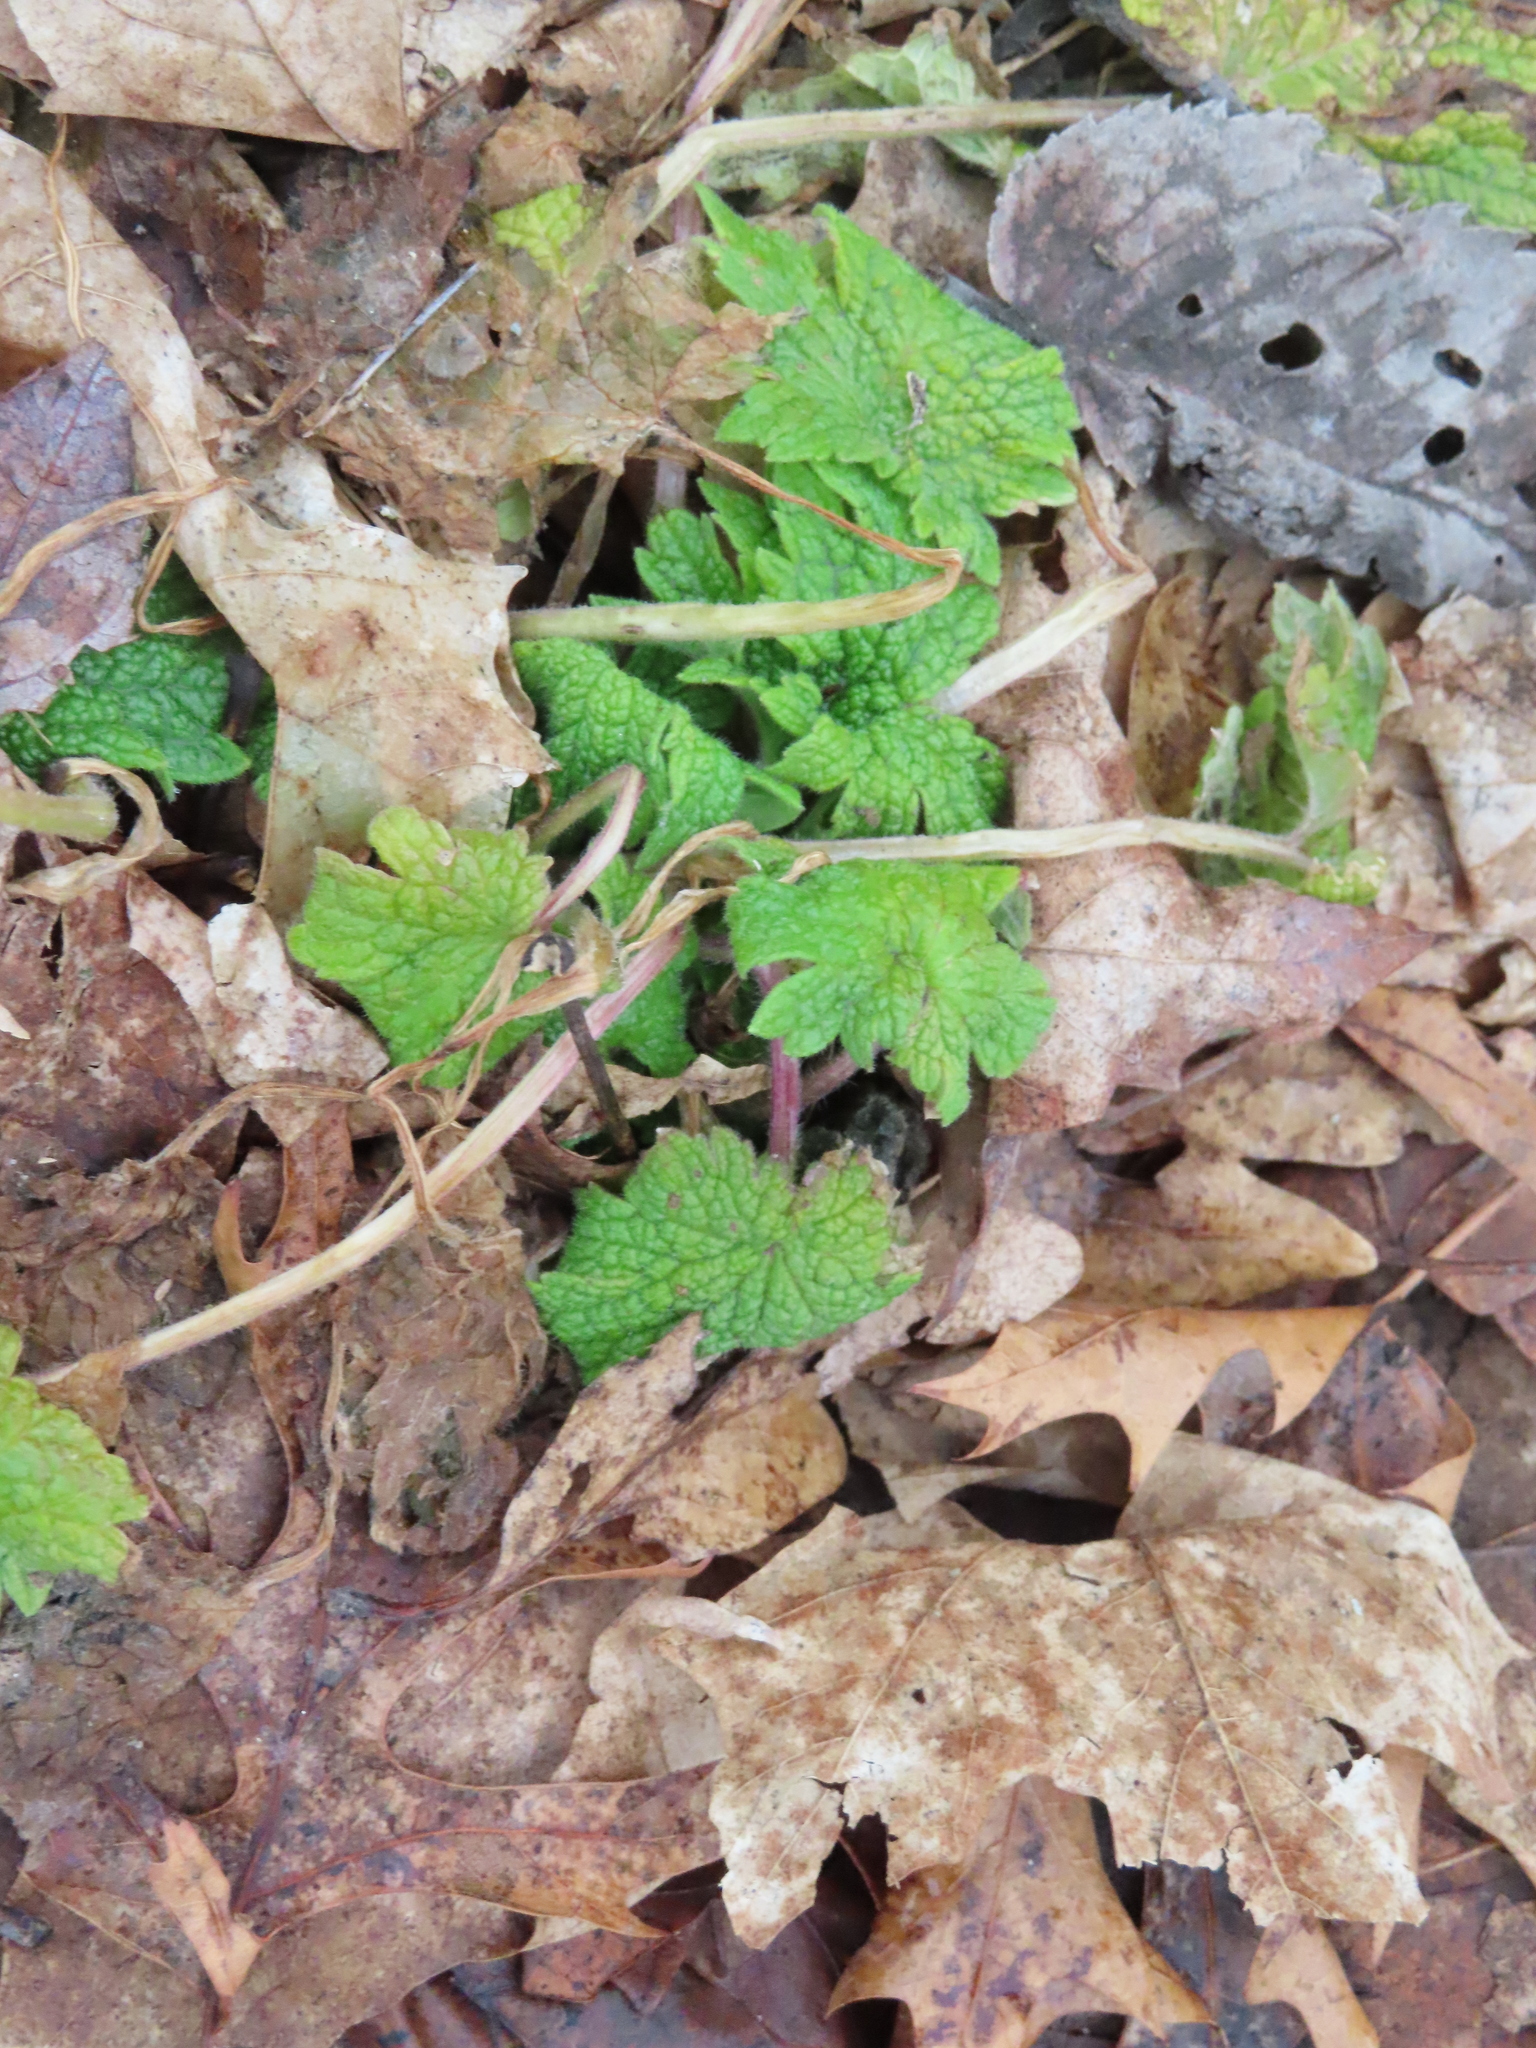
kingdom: Plantae
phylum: Tracheophyta
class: Magnoliopsida
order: Lamiales
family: Lamiaceae
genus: Leonurus
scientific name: Leonurus cardiaca
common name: Motherwort
